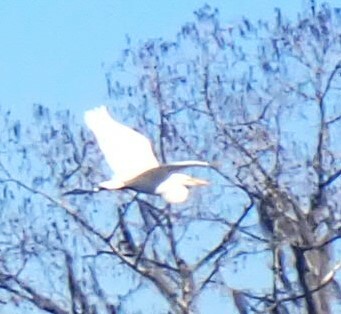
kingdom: Animalia
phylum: Chordata
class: Aves
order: Pelecaniformes
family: Ardeidae
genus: Ardea
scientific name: Ardea alba
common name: Great egret
